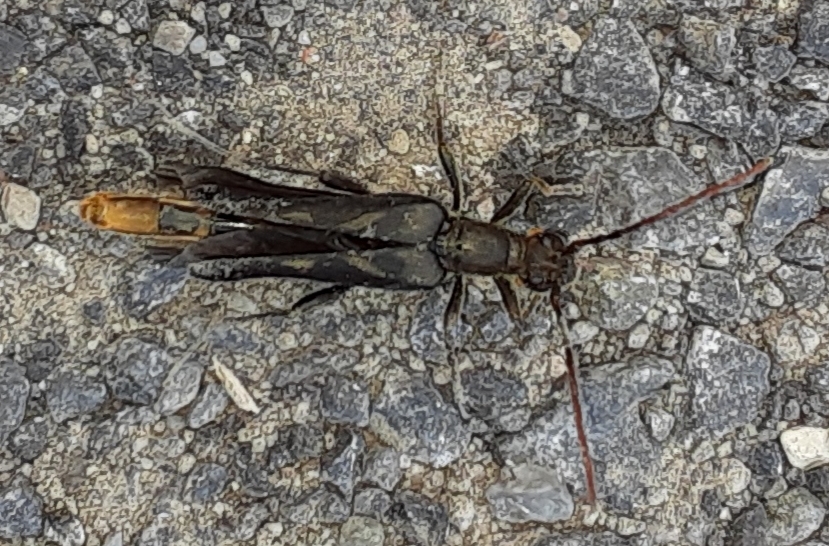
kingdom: Animalia
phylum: Arthropoda
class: Insecta
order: Coleoptera
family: Cerambycidae
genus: Bellamira
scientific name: Bellamira scalaris
